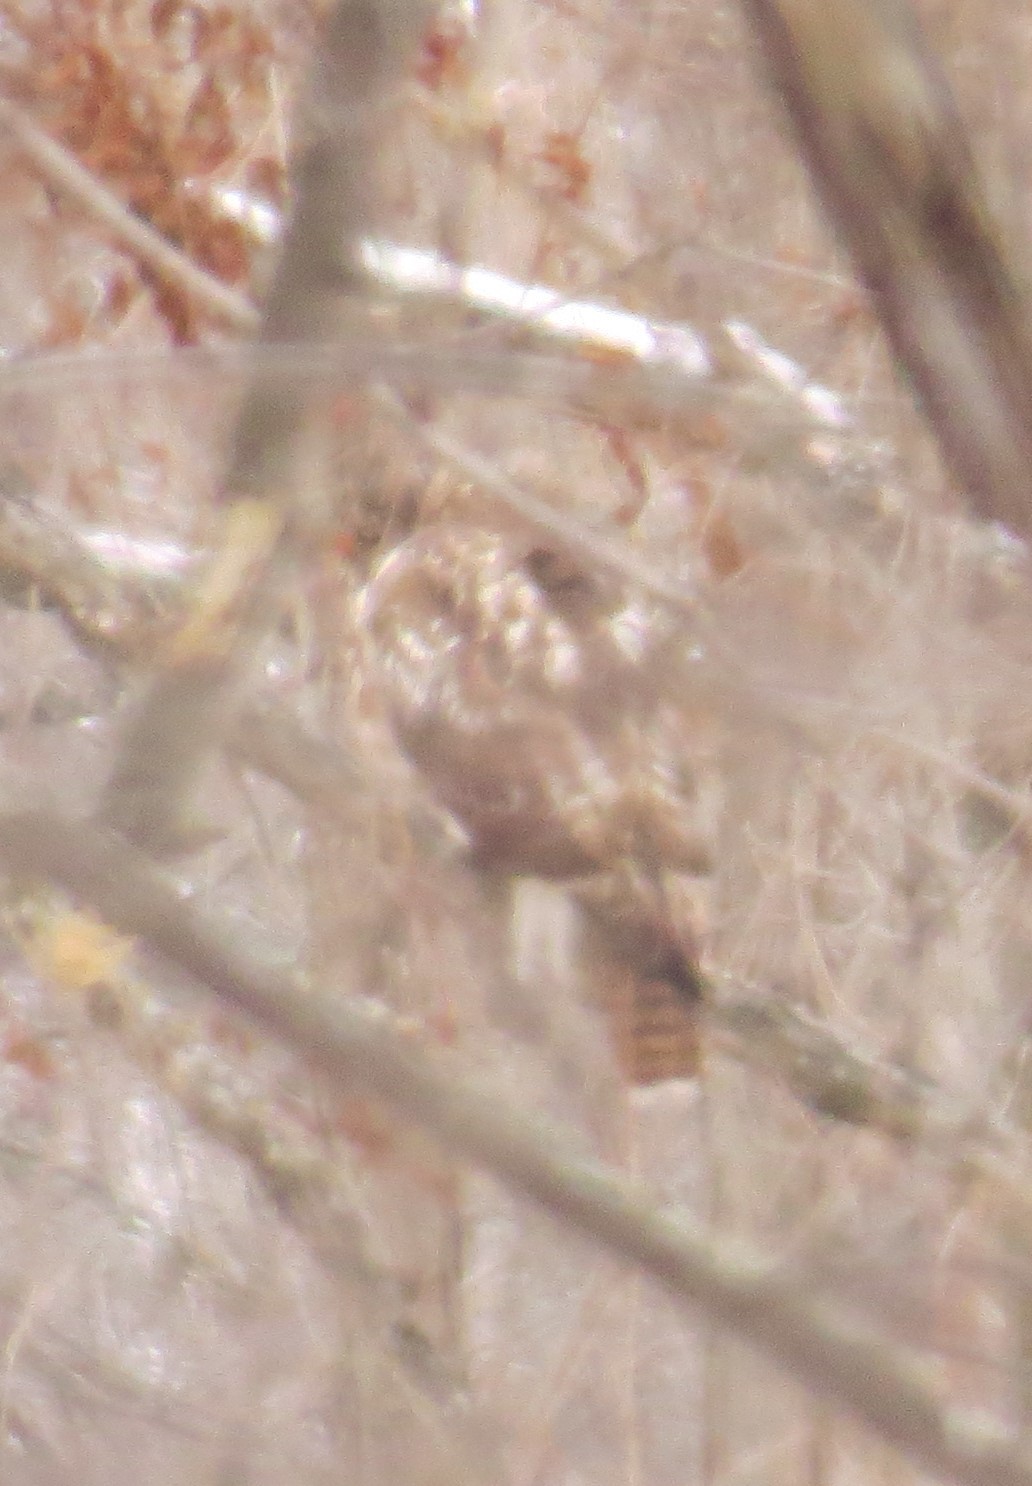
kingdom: Animalia
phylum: Chordata
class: Aves
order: Accipitriformes
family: Accipitridae
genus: Buteo
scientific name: Buteo jamaicensis
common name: Red-tailed hawk
